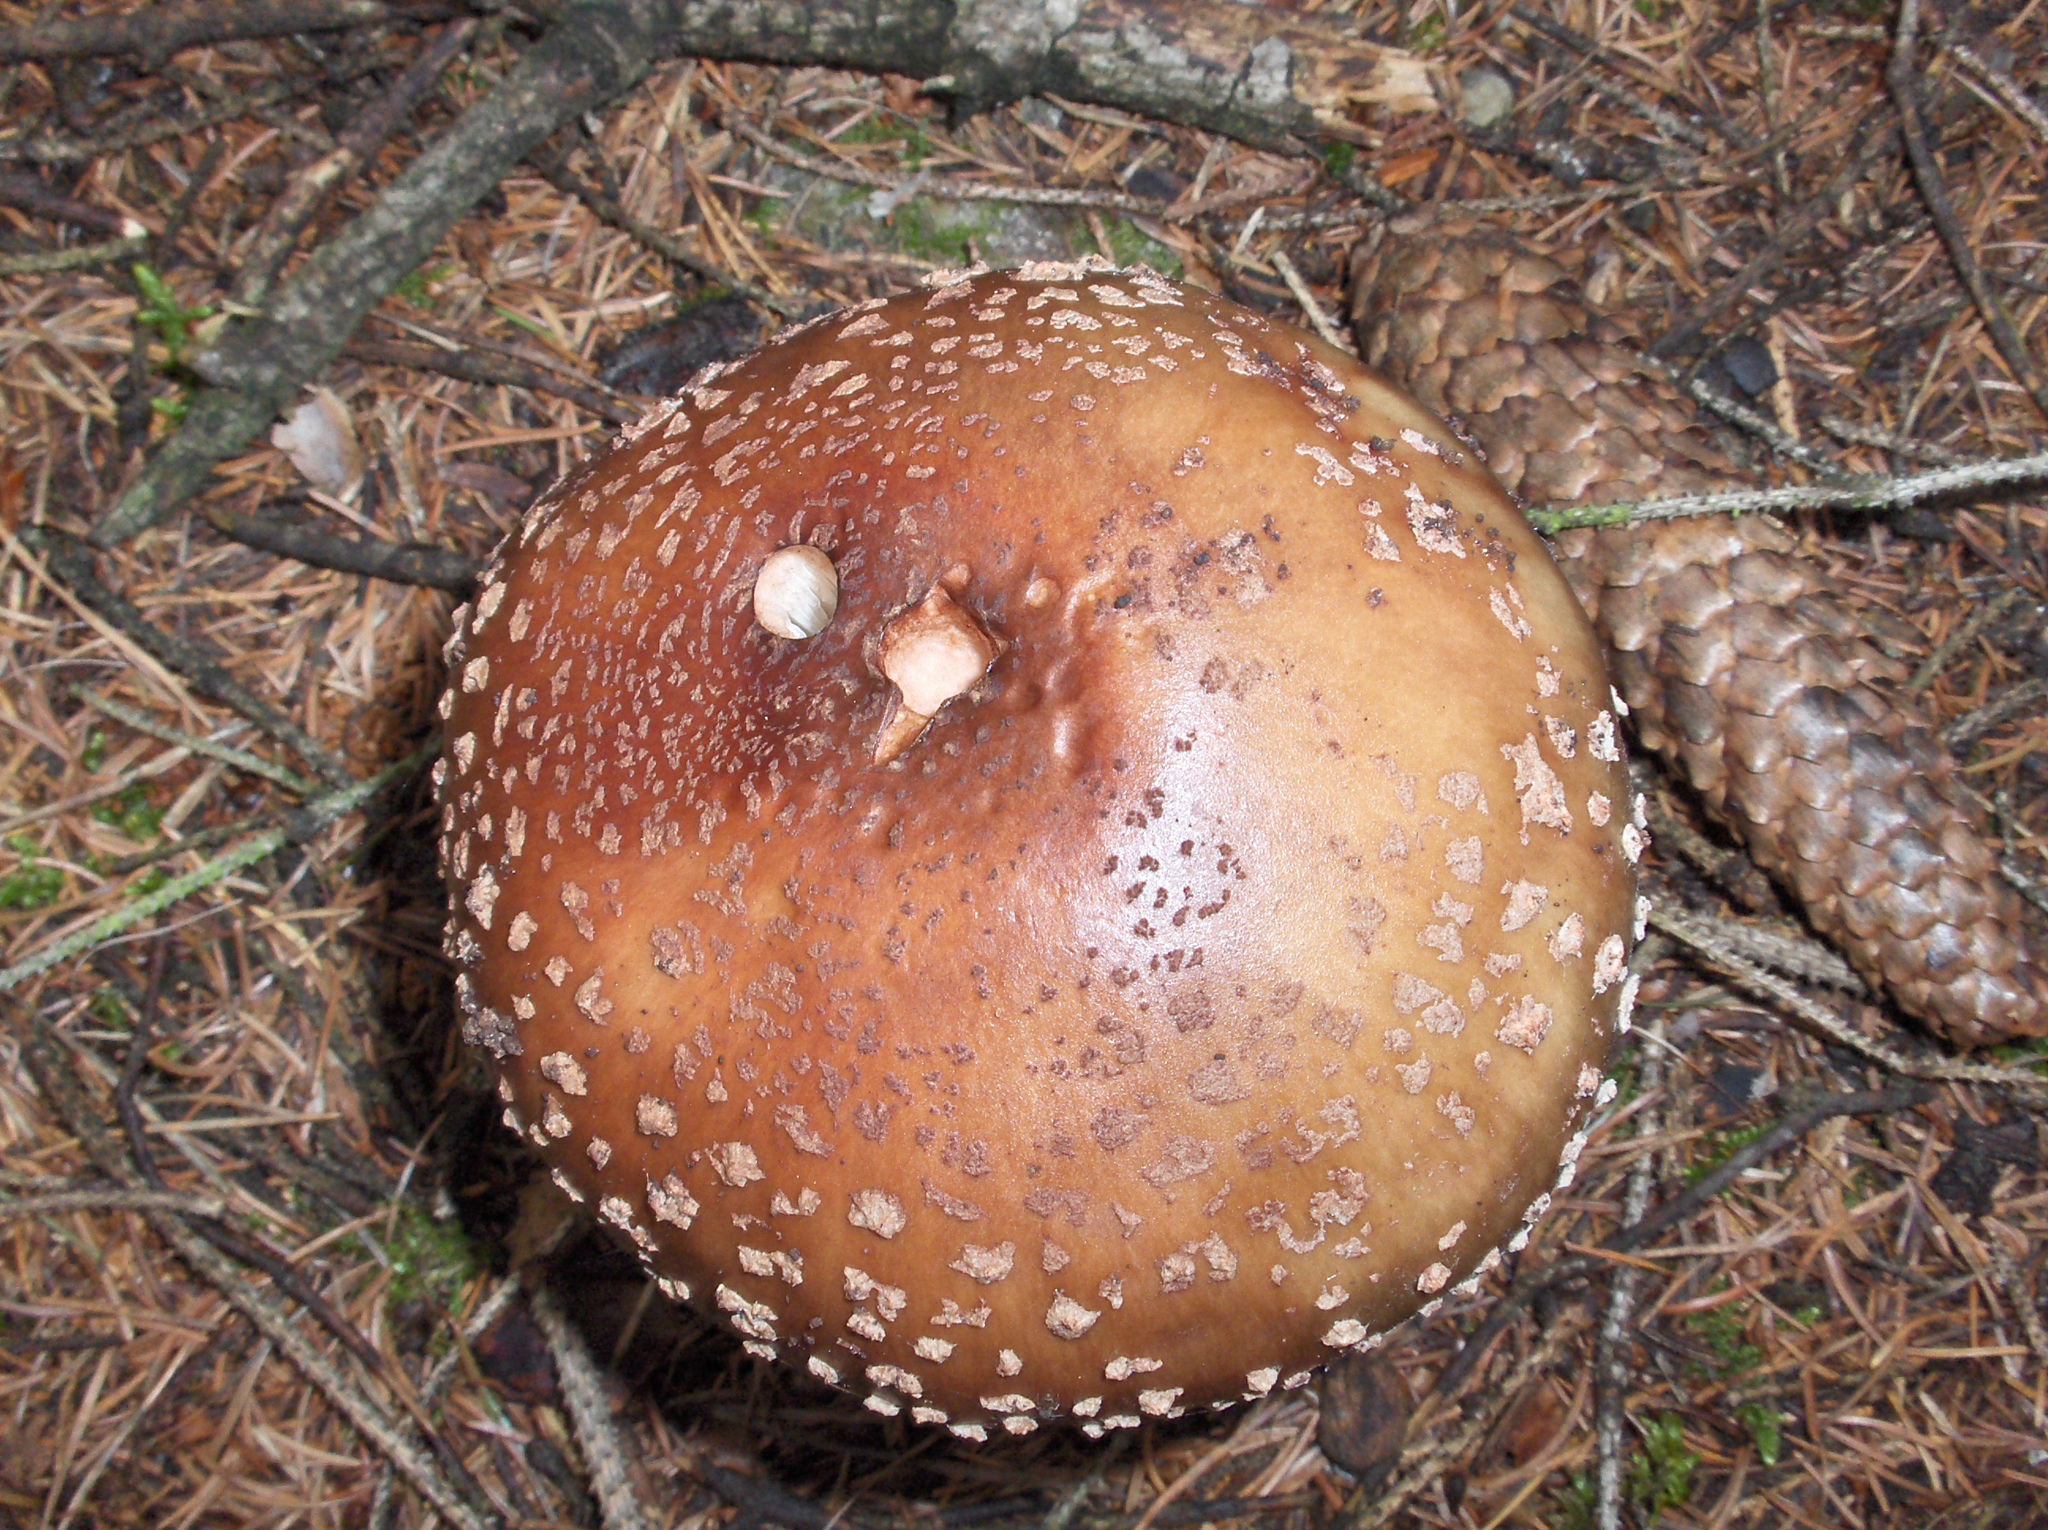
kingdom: Fungi
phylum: Basidiomycota
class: Agaricomycetes
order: Agaricales
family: Amanitaceae
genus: Amanita
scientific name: Amanita rubescens
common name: Blusher
